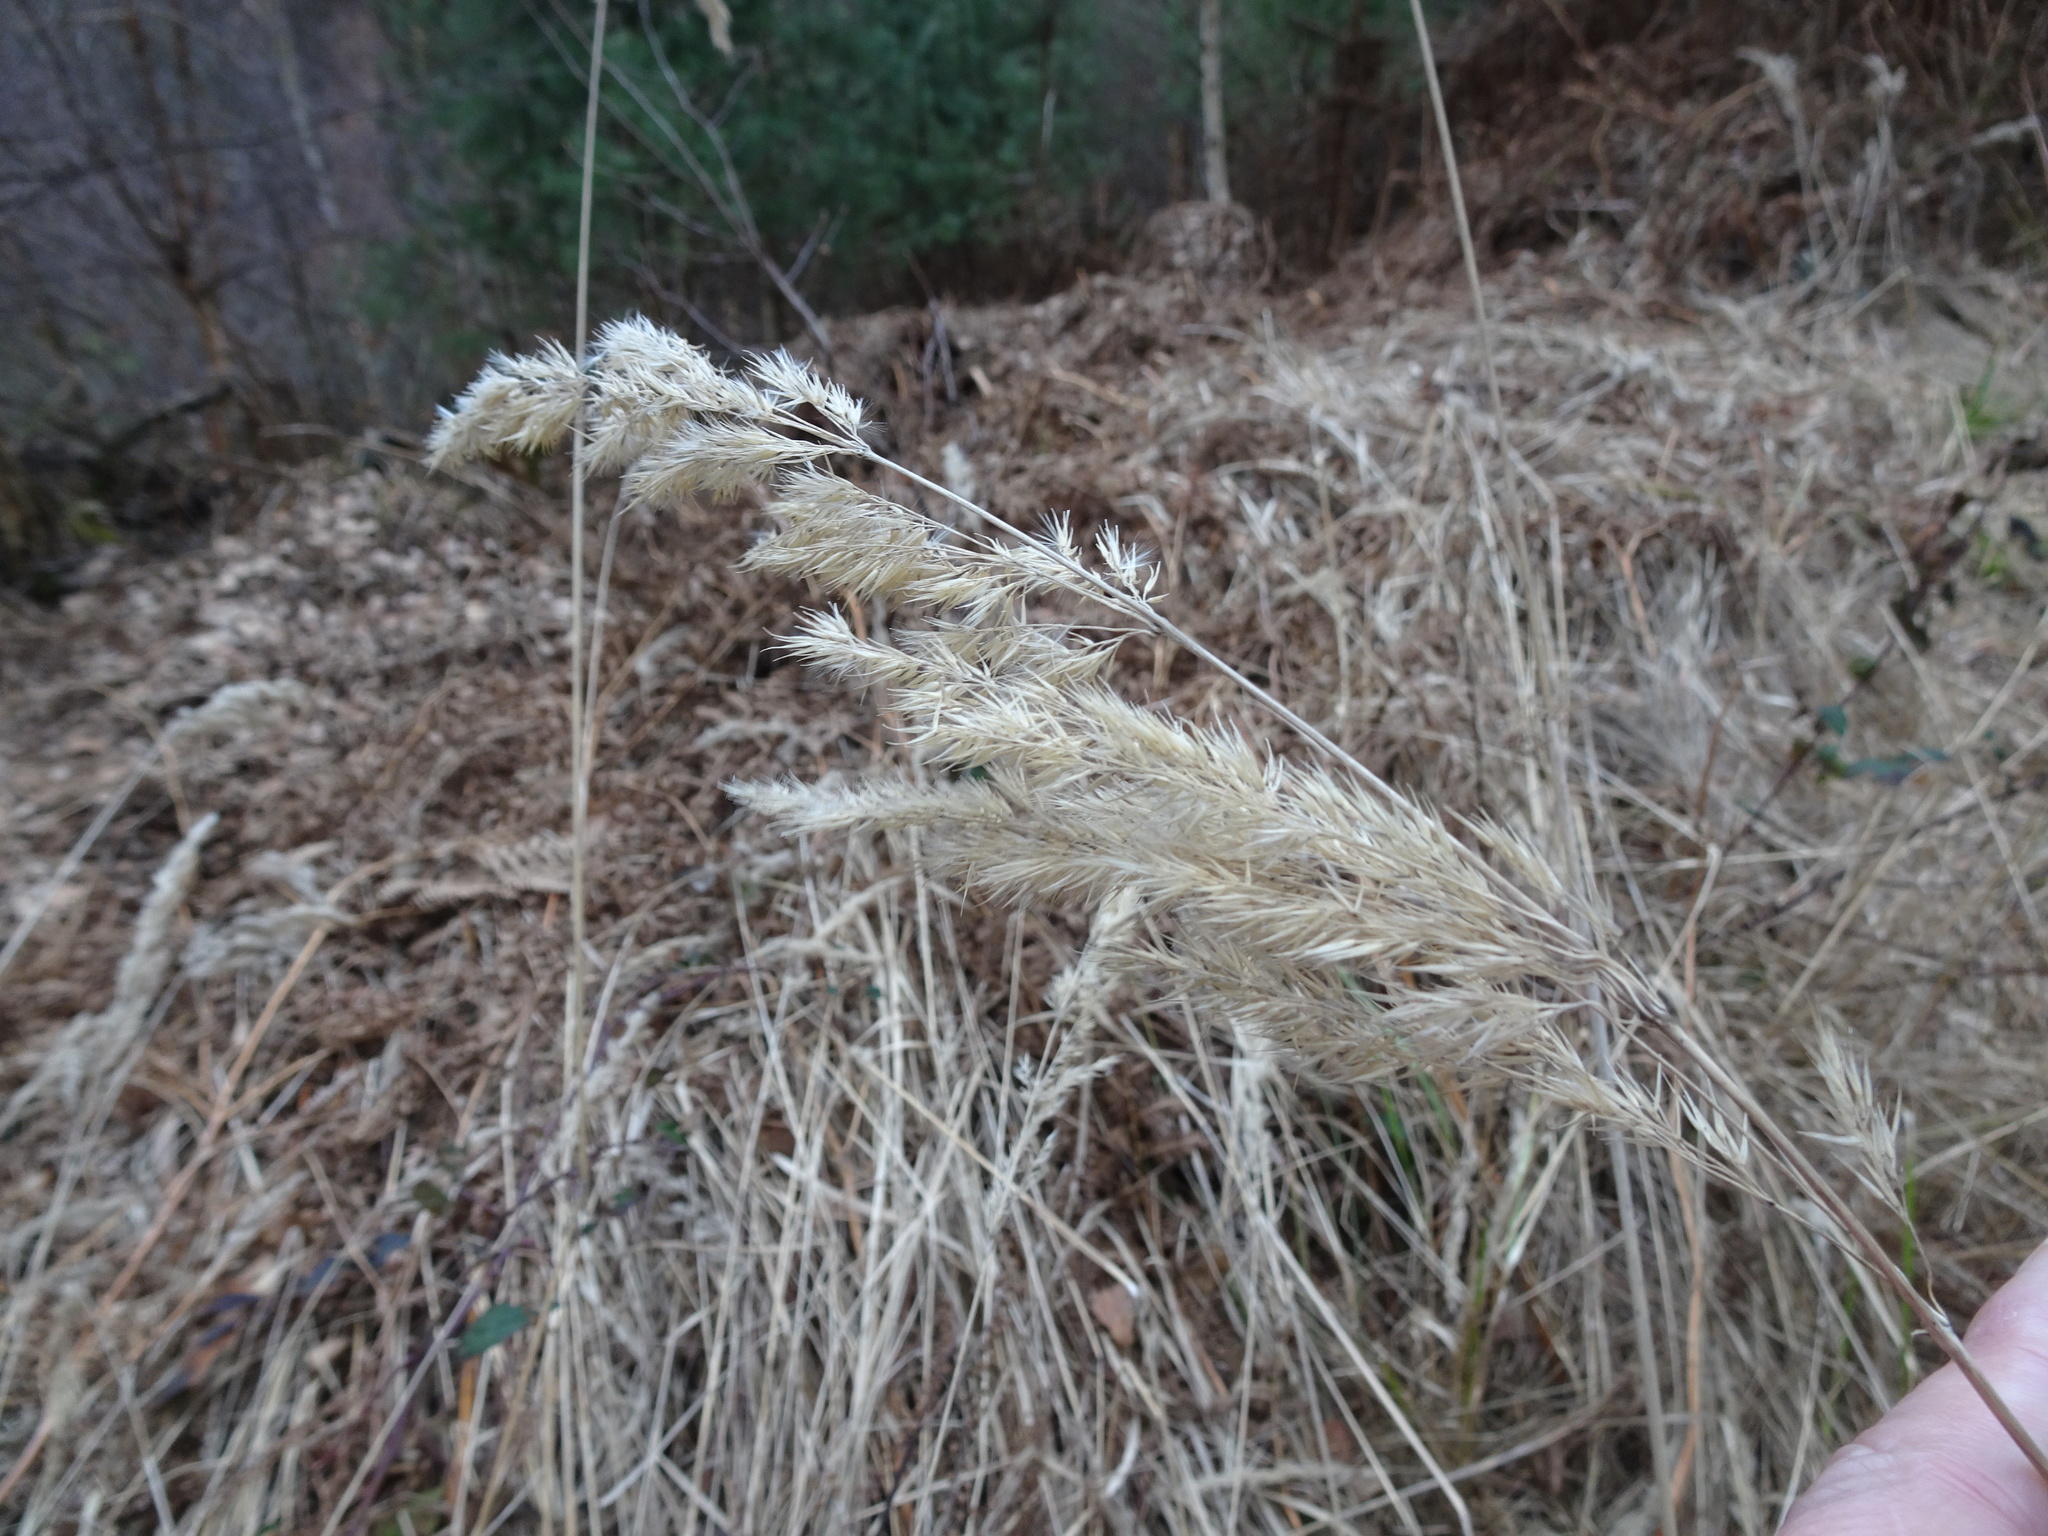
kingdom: Plantae
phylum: Tracheophyta
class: Liliopsida
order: Poales
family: Poaceae
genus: Calamagrostis
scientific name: Calamagrostis epigejos
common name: Wood small-reed
